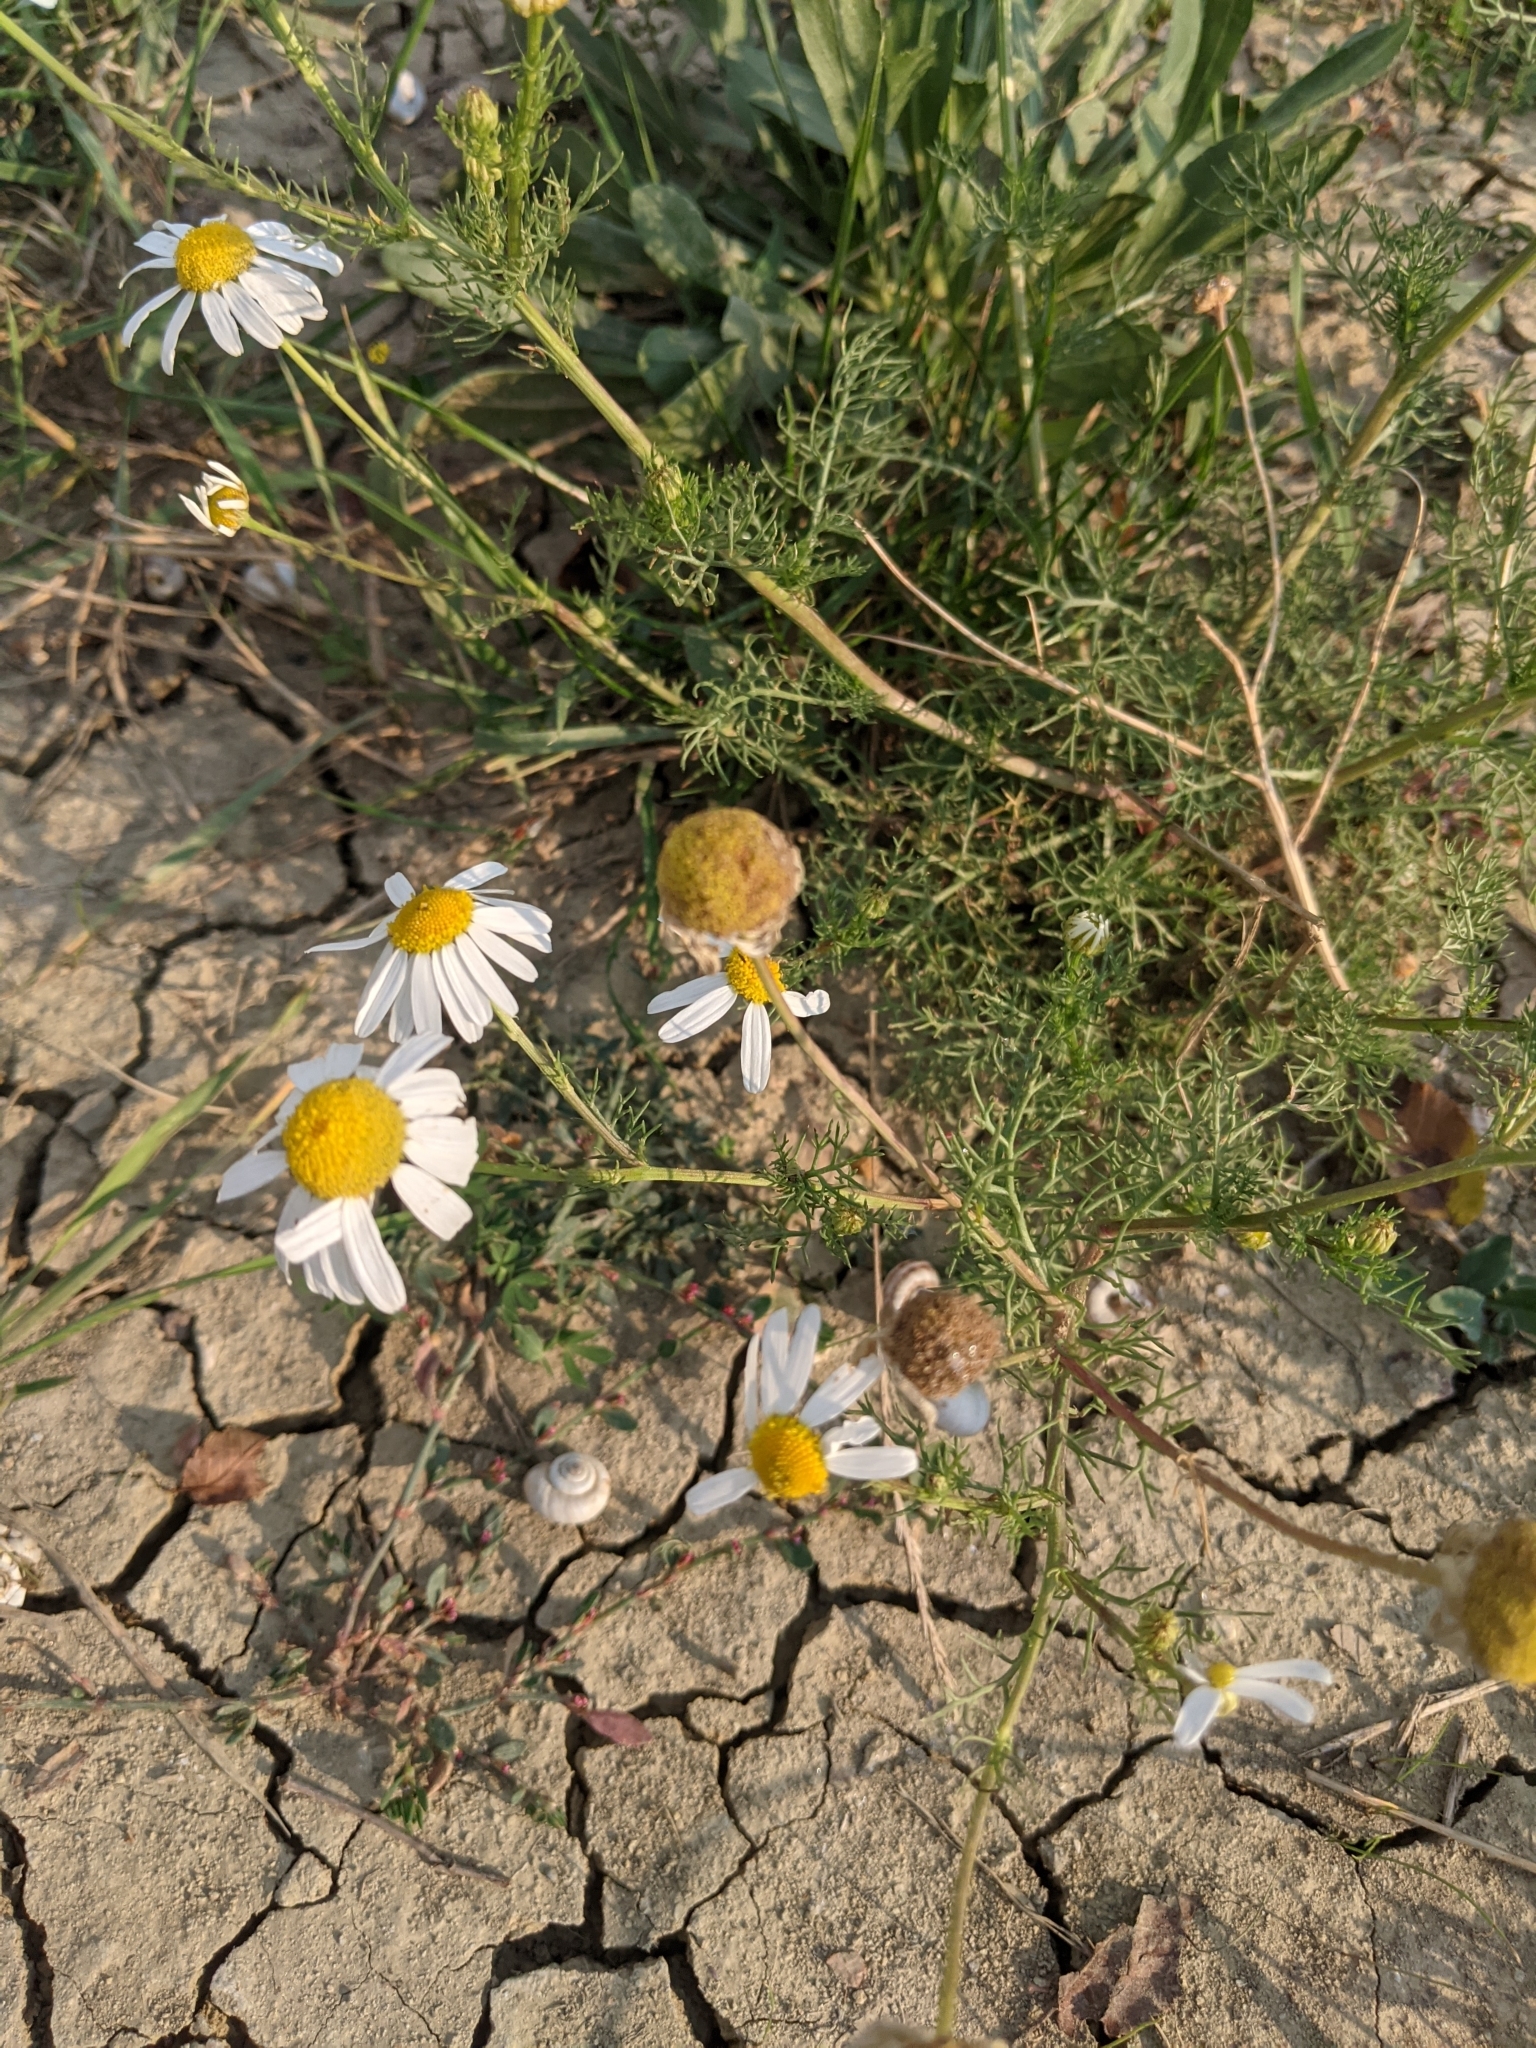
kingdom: Plantae
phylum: Tracheophyta
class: Magnoliopsida
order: Asterales
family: Asteraceae
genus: Tripleurospermum
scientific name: Tripleurospermum inodorum
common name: Scentless mayweed
